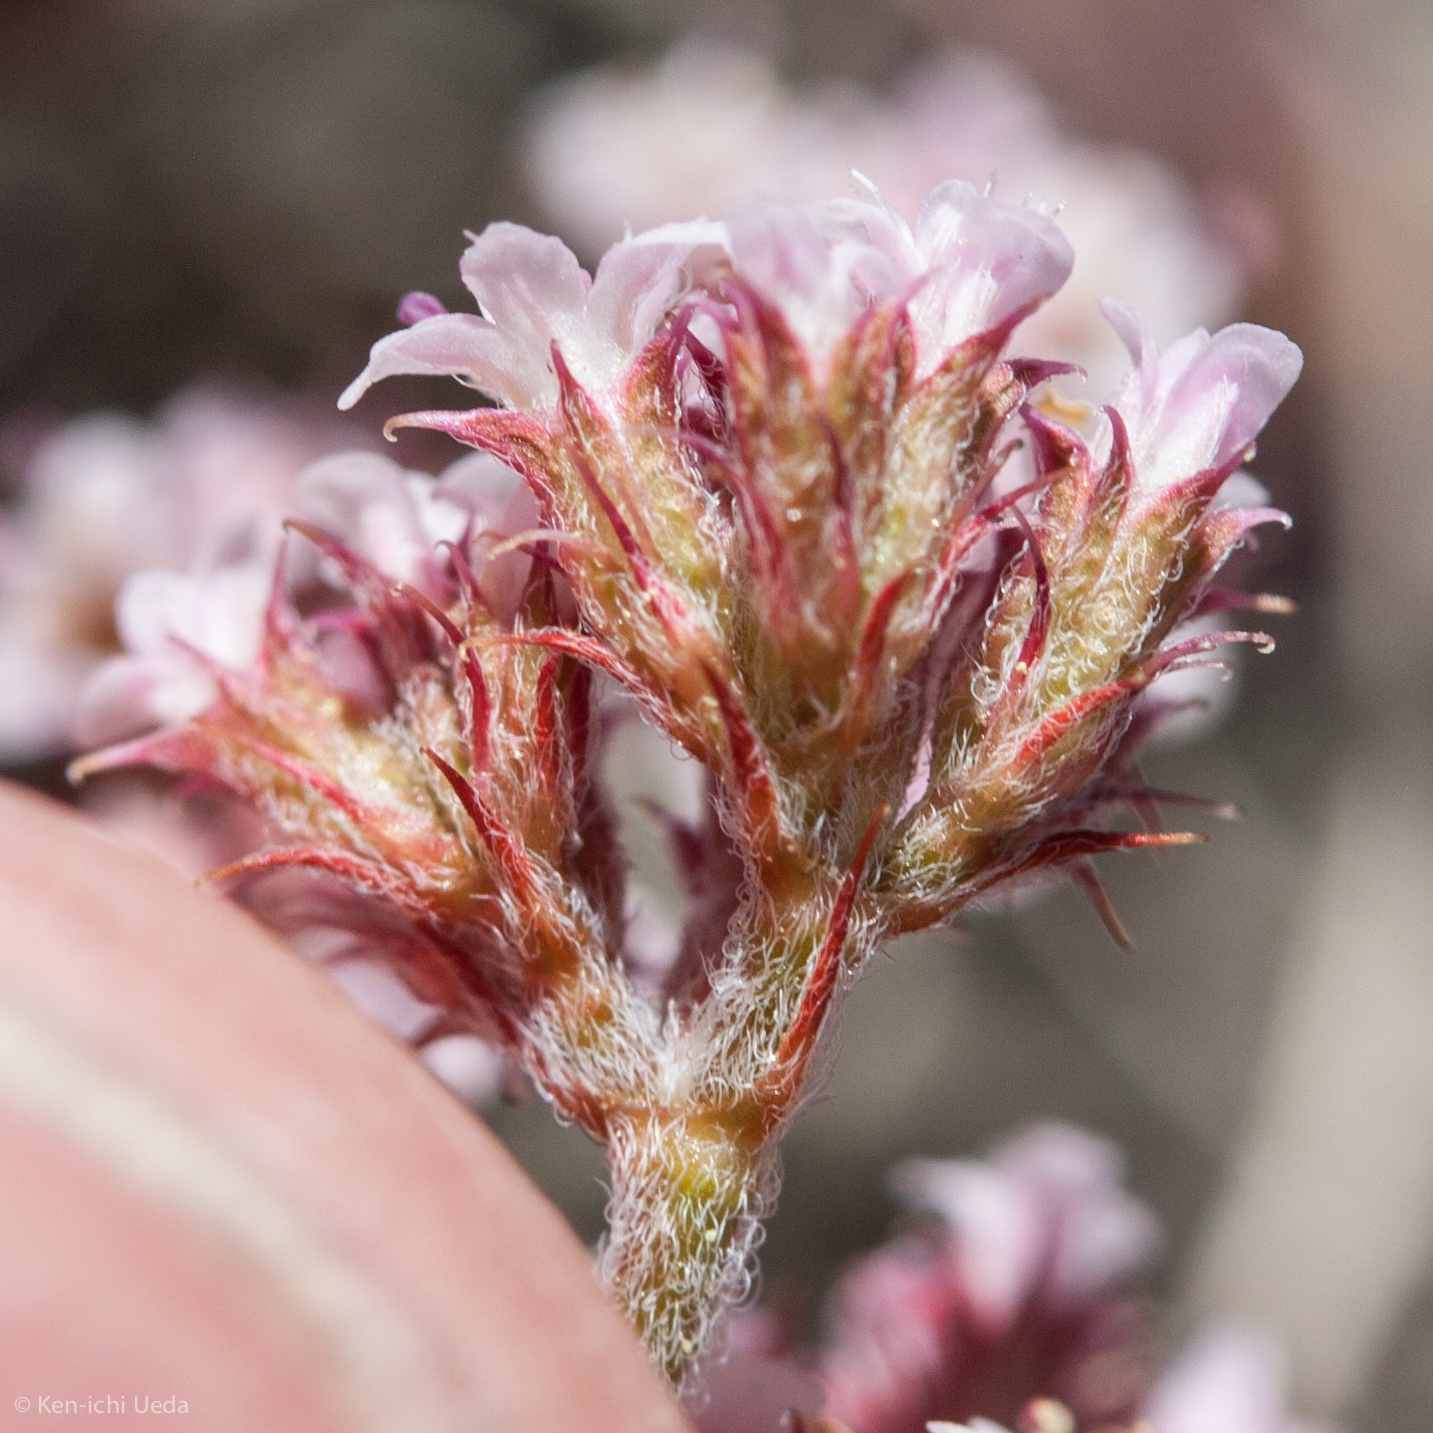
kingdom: Plantae
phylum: Tracheophyta
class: Magnoliopsida
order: Caryophyllales
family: Polygonaceae
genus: Chorizanthe
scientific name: Chorizanthe breweri
